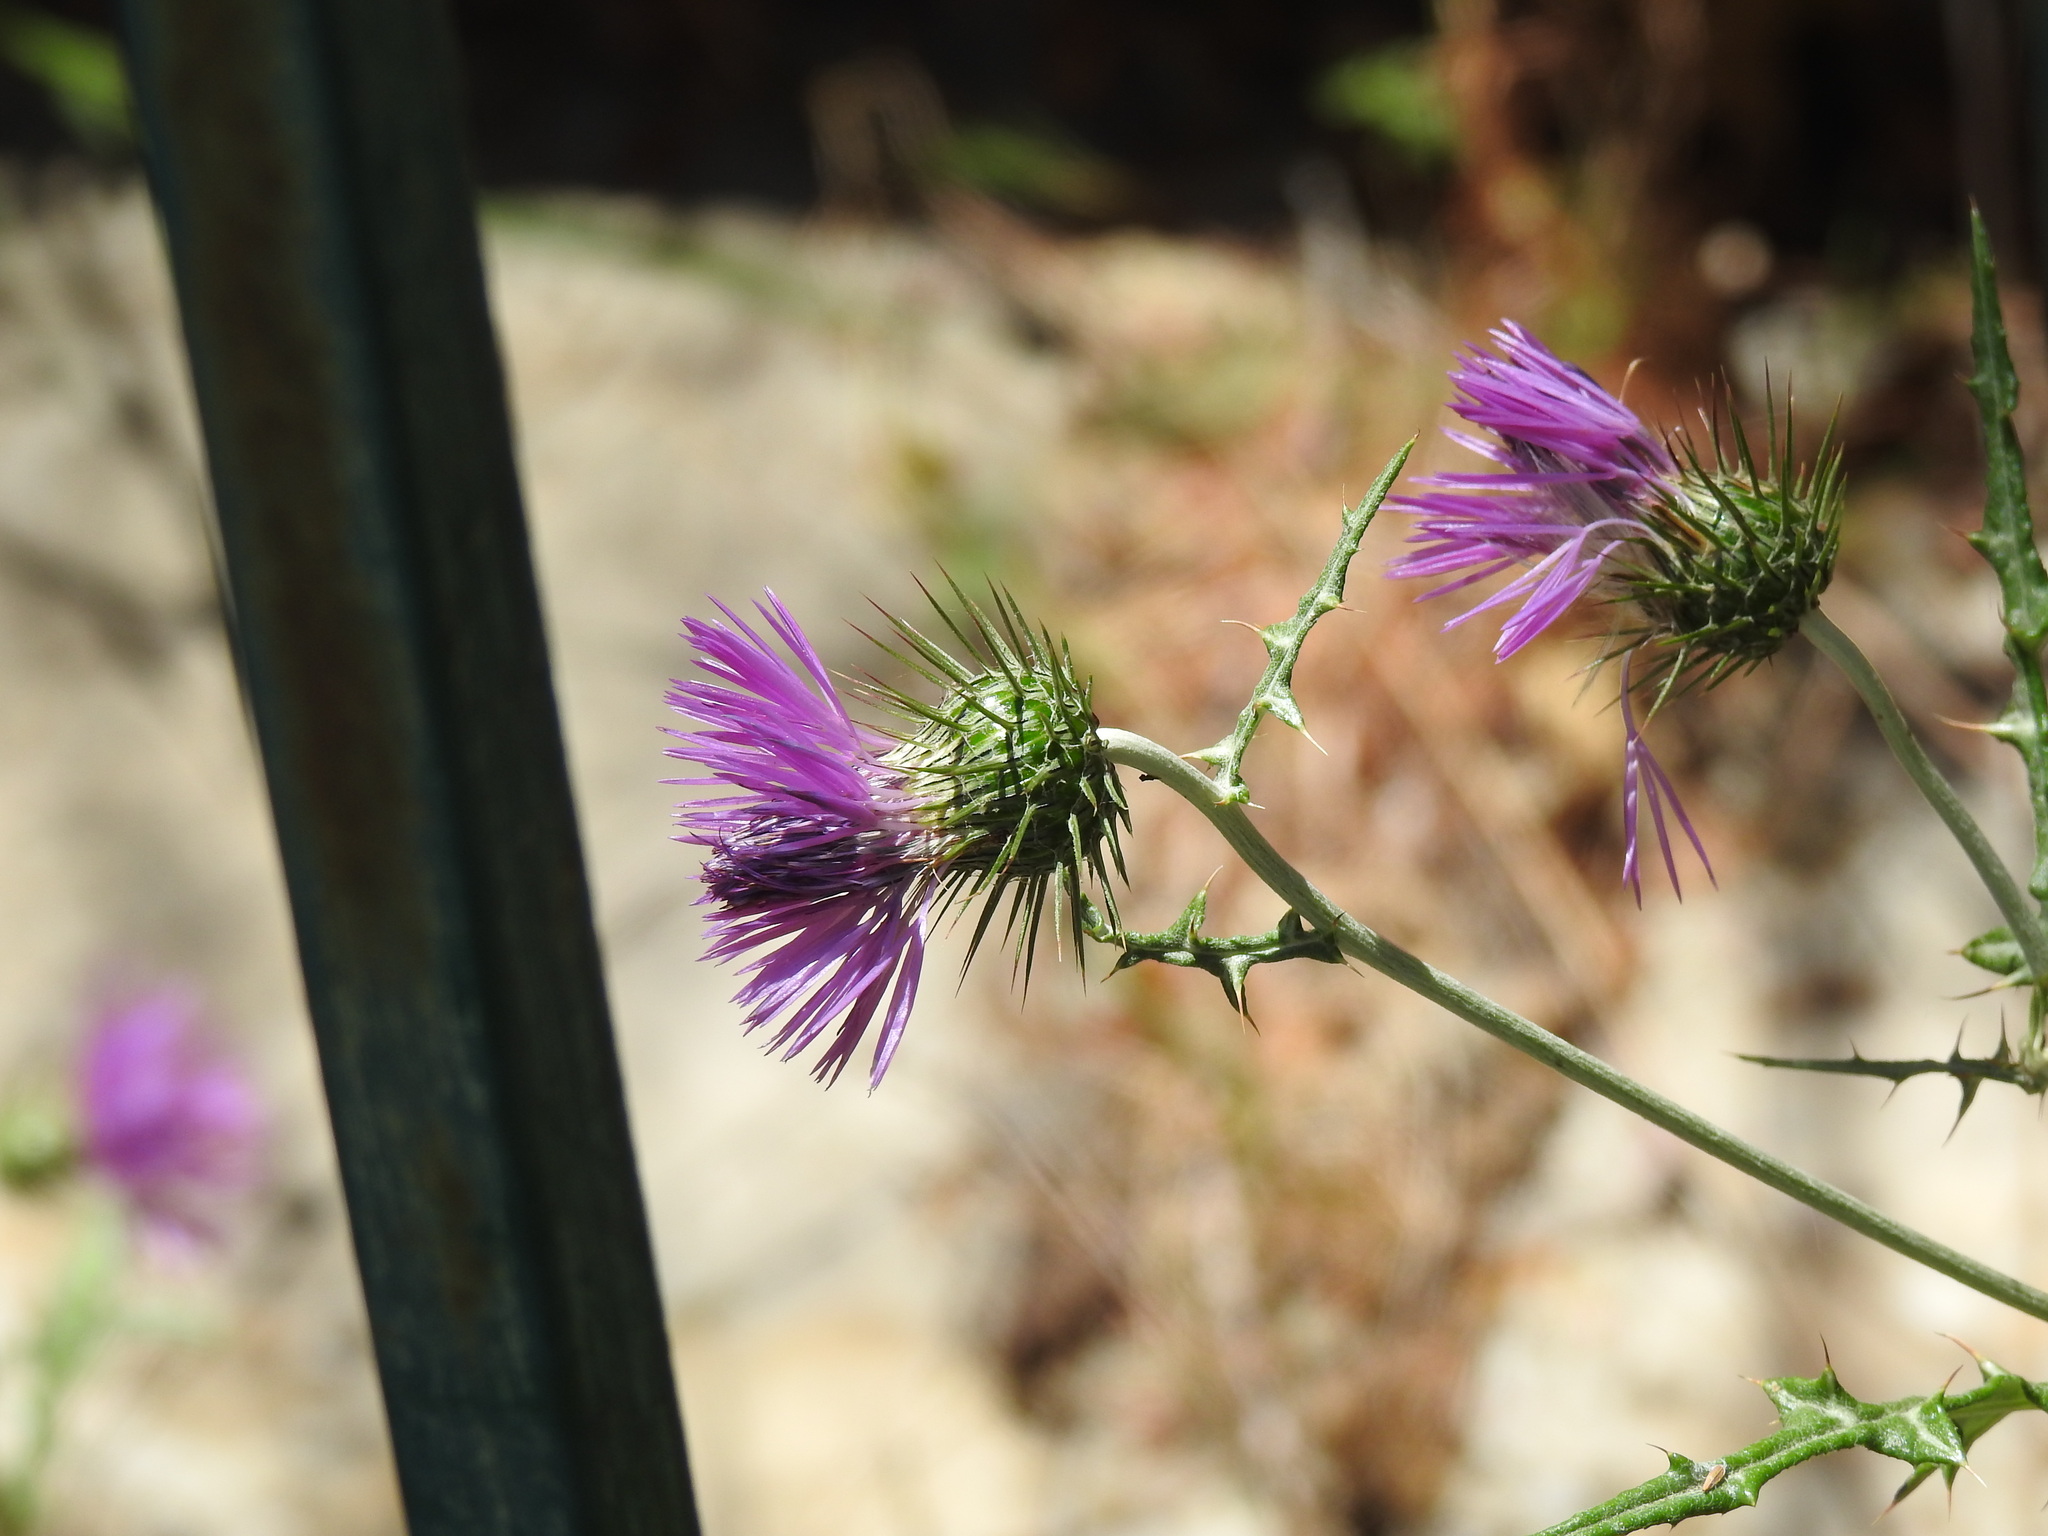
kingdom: Plantae
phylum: Tracheophyta
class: Magnoliopsida
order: Asterales
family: Asteraceae
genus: Galactites
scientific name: Galactites tomentosa
